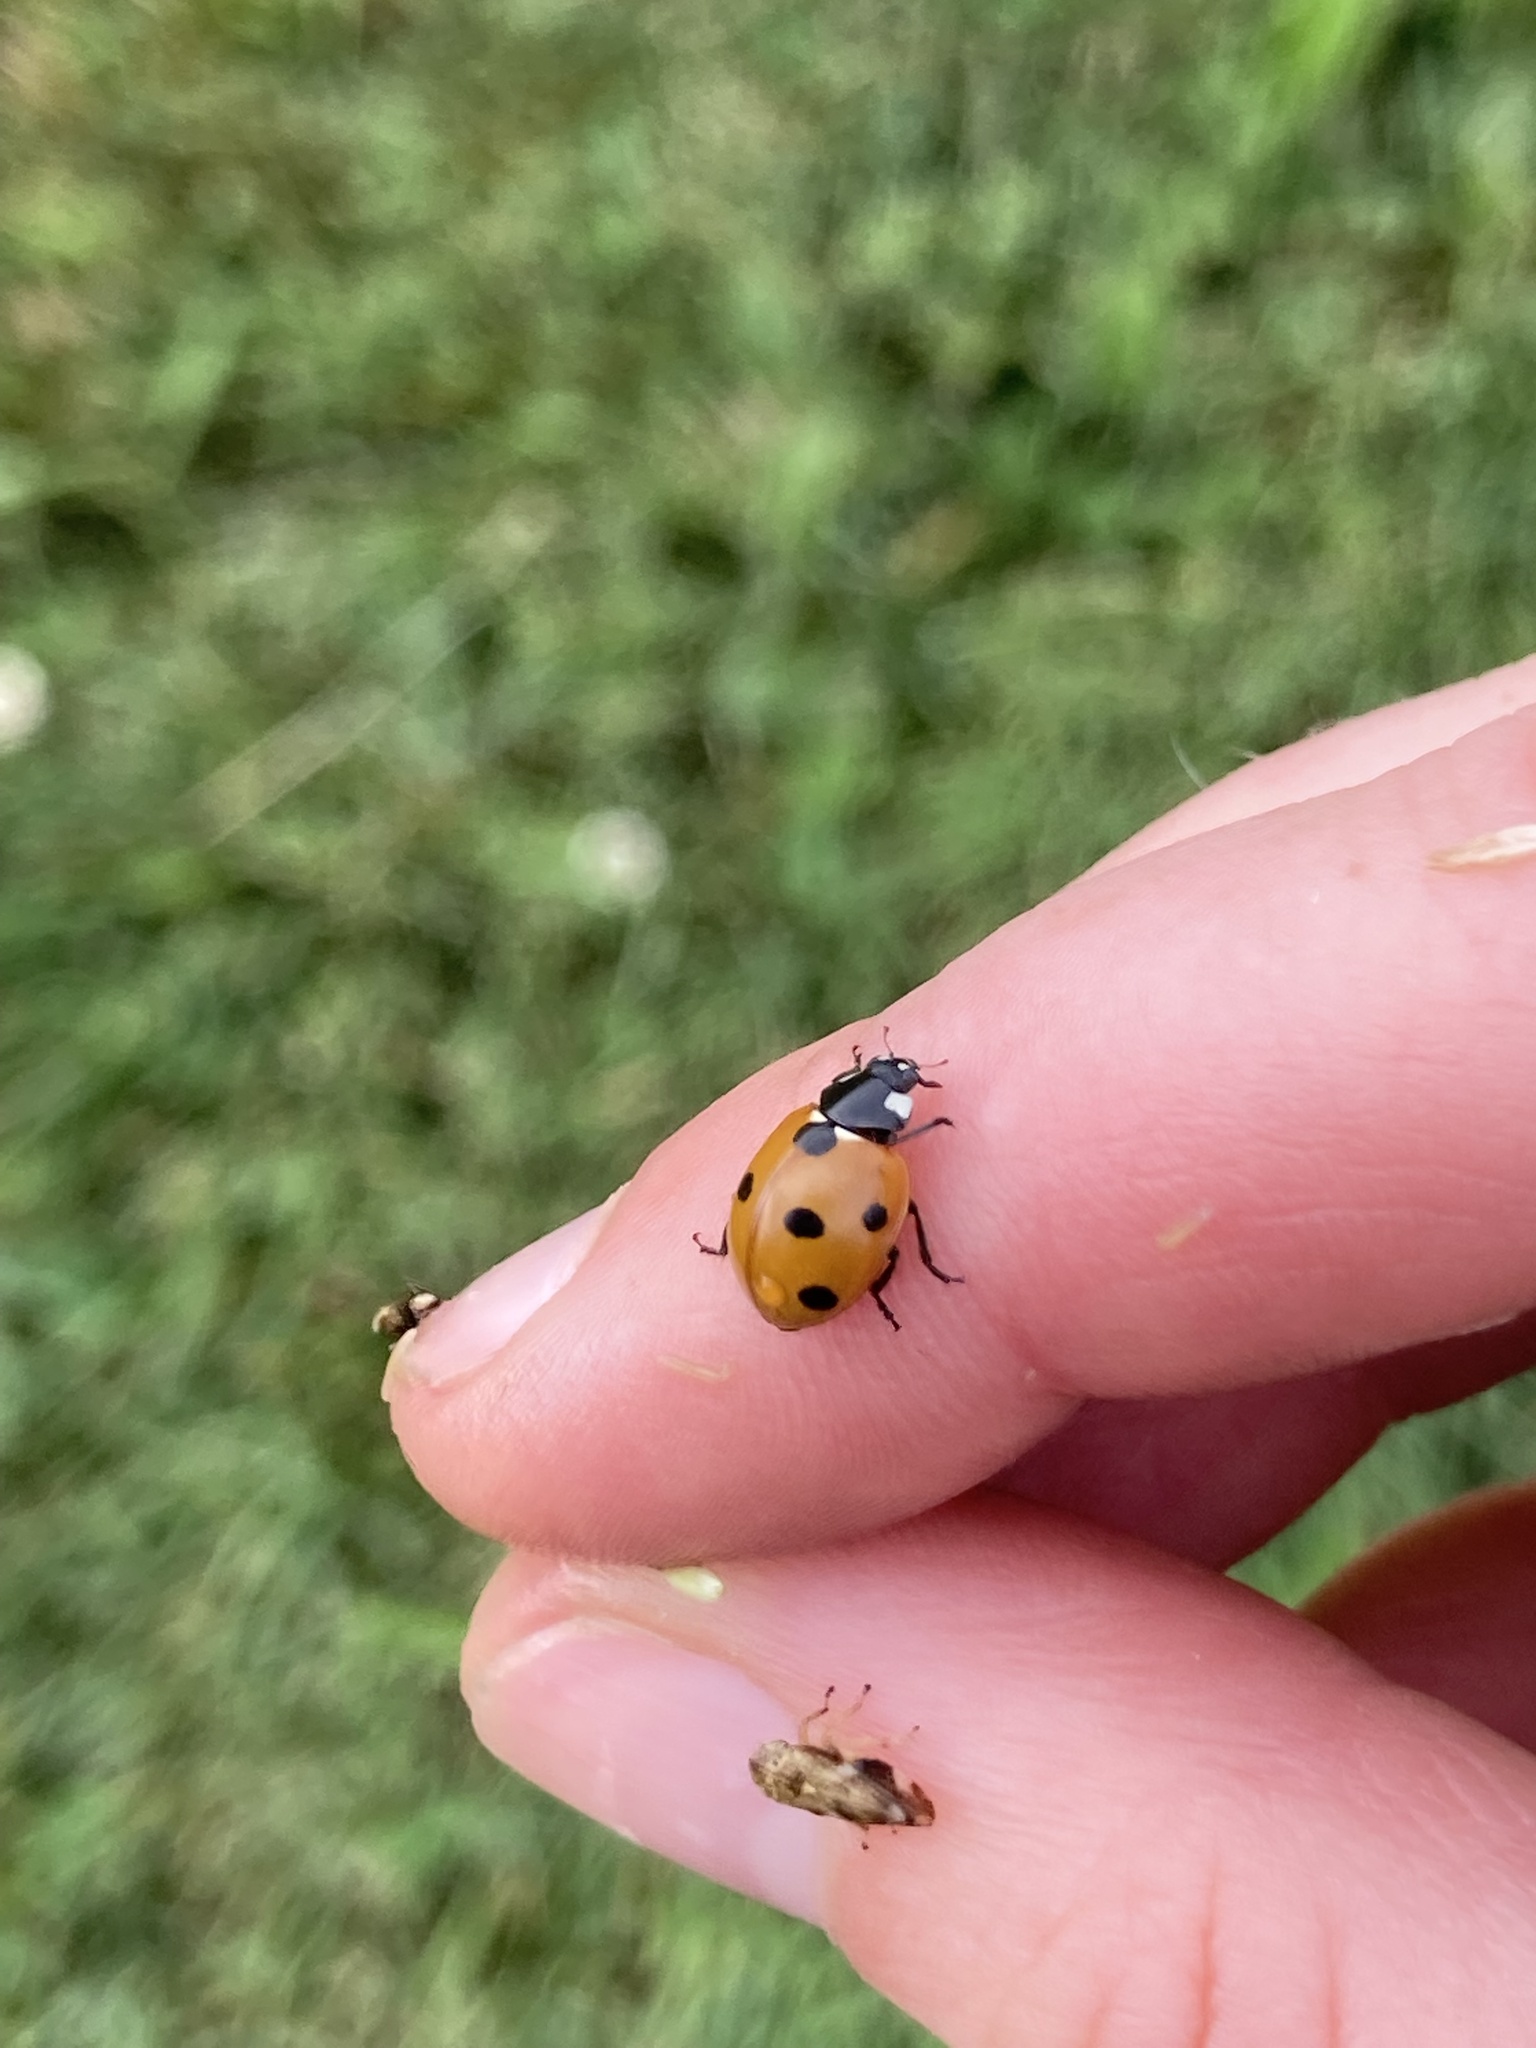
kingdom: Animalia
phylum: Arthropoda
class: Insecta
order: Coleoptera
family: Coccinellidae
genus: Coccinella
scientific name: Coccinella septempunctata
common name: Sevenspotted lady beetle
